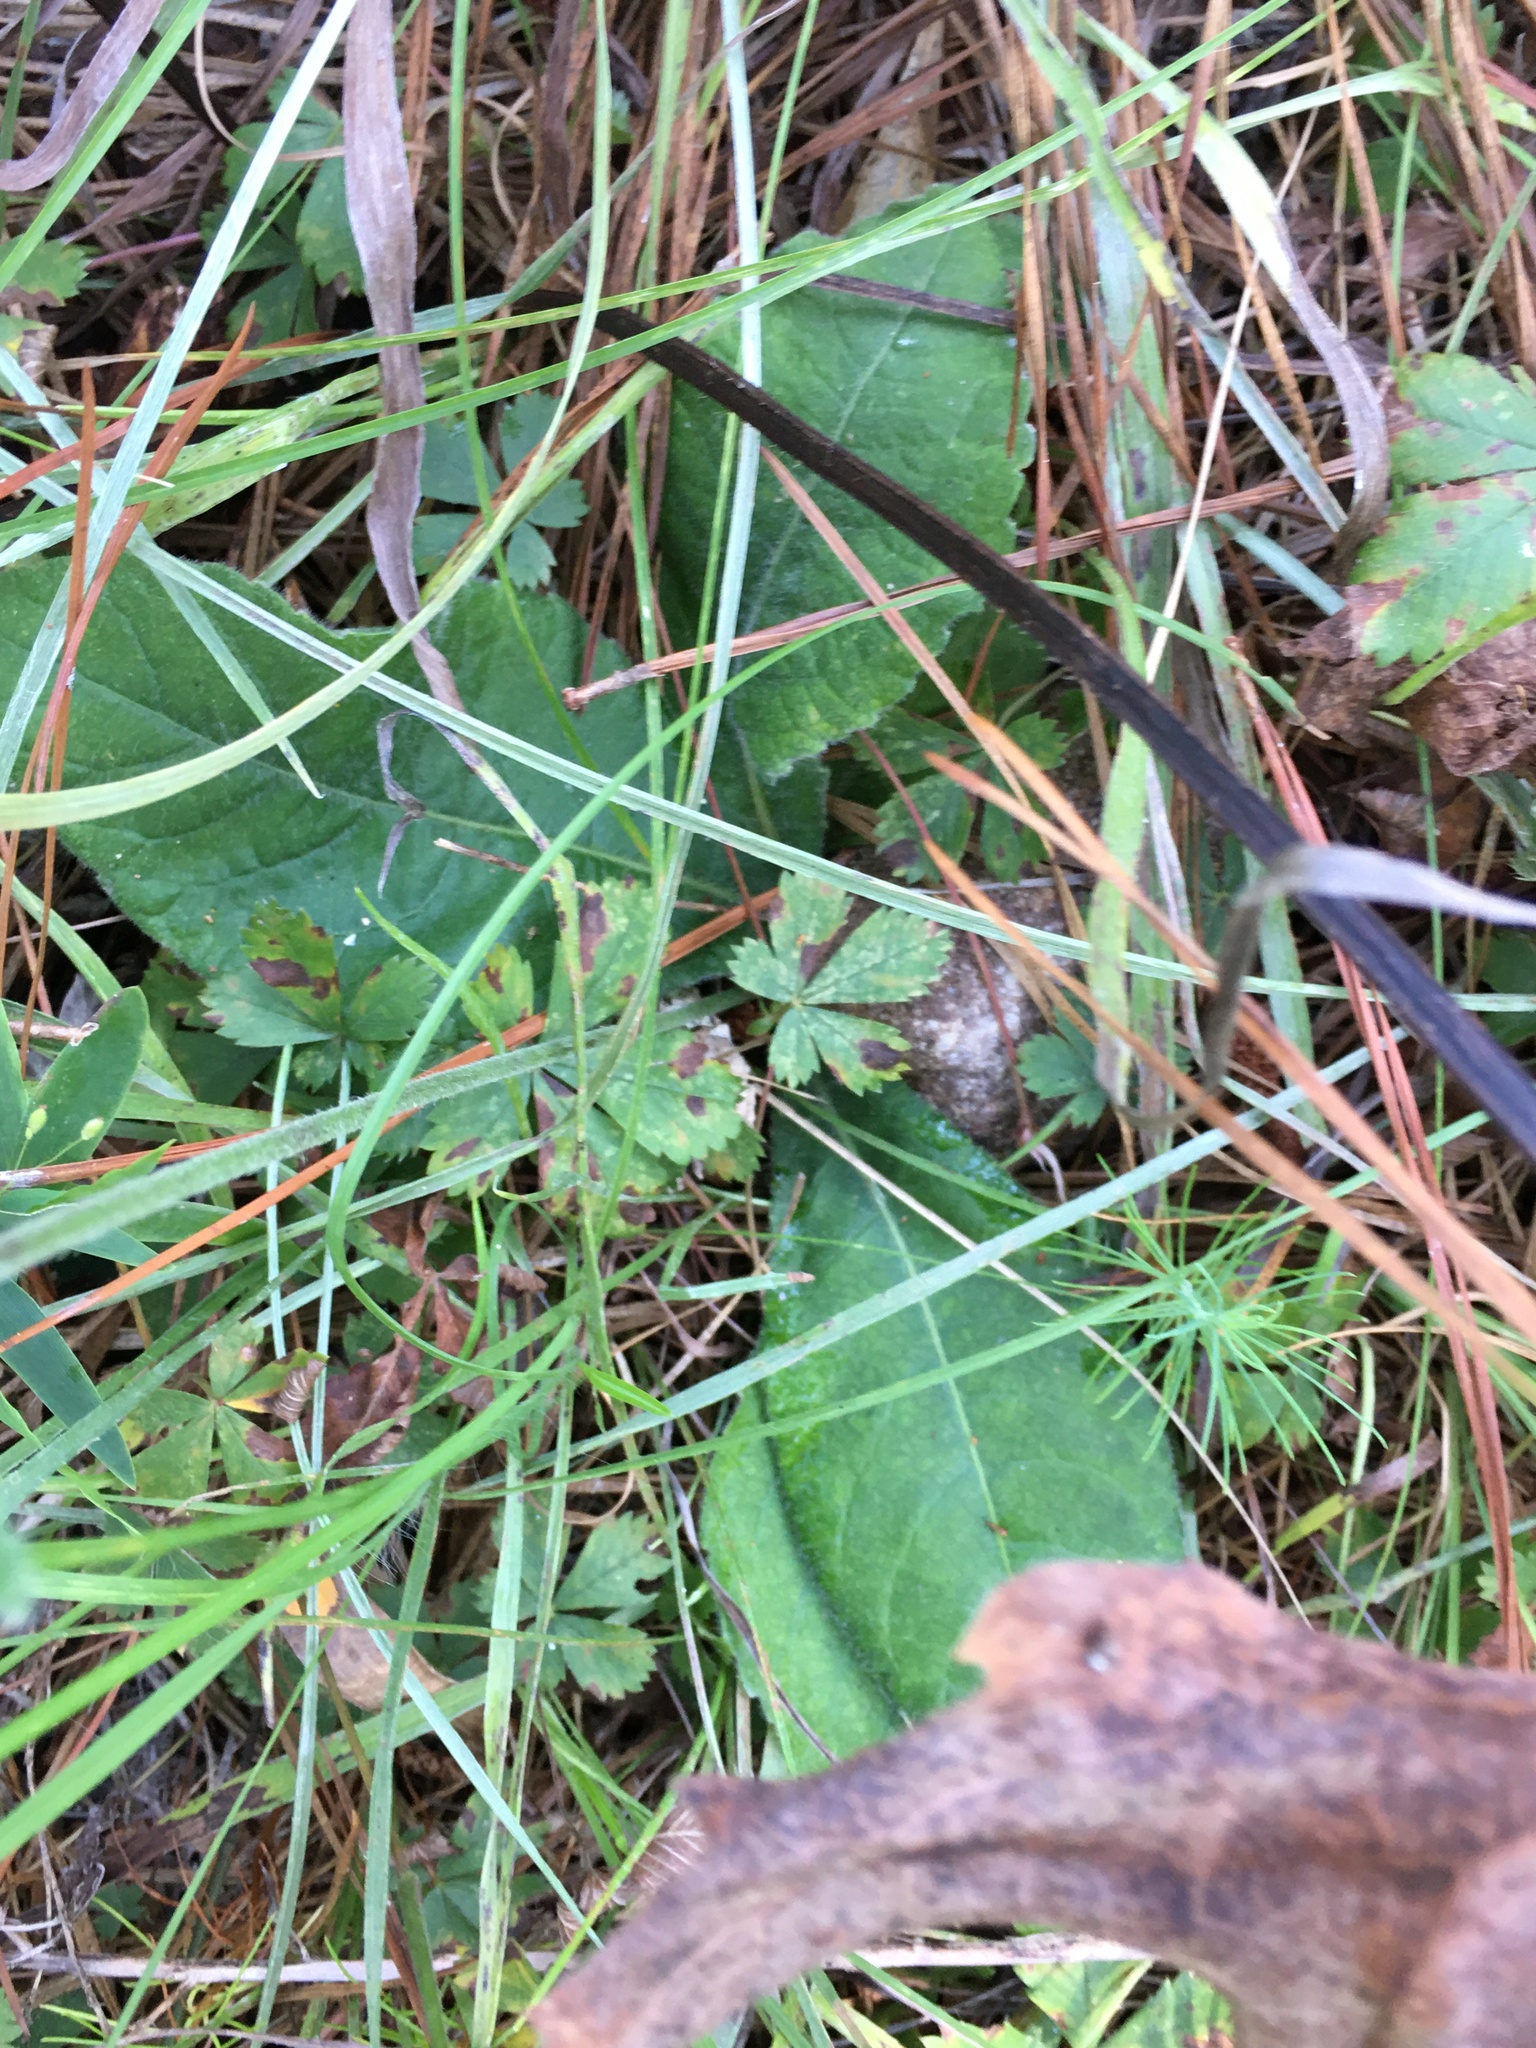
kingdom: Plantae
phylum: Tracheophyta
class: Magnoliopsida
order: Asterales
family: Asteraceae
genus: Elephantopus
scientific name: Elephantopus tomentosus
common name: Tobacco-weed
